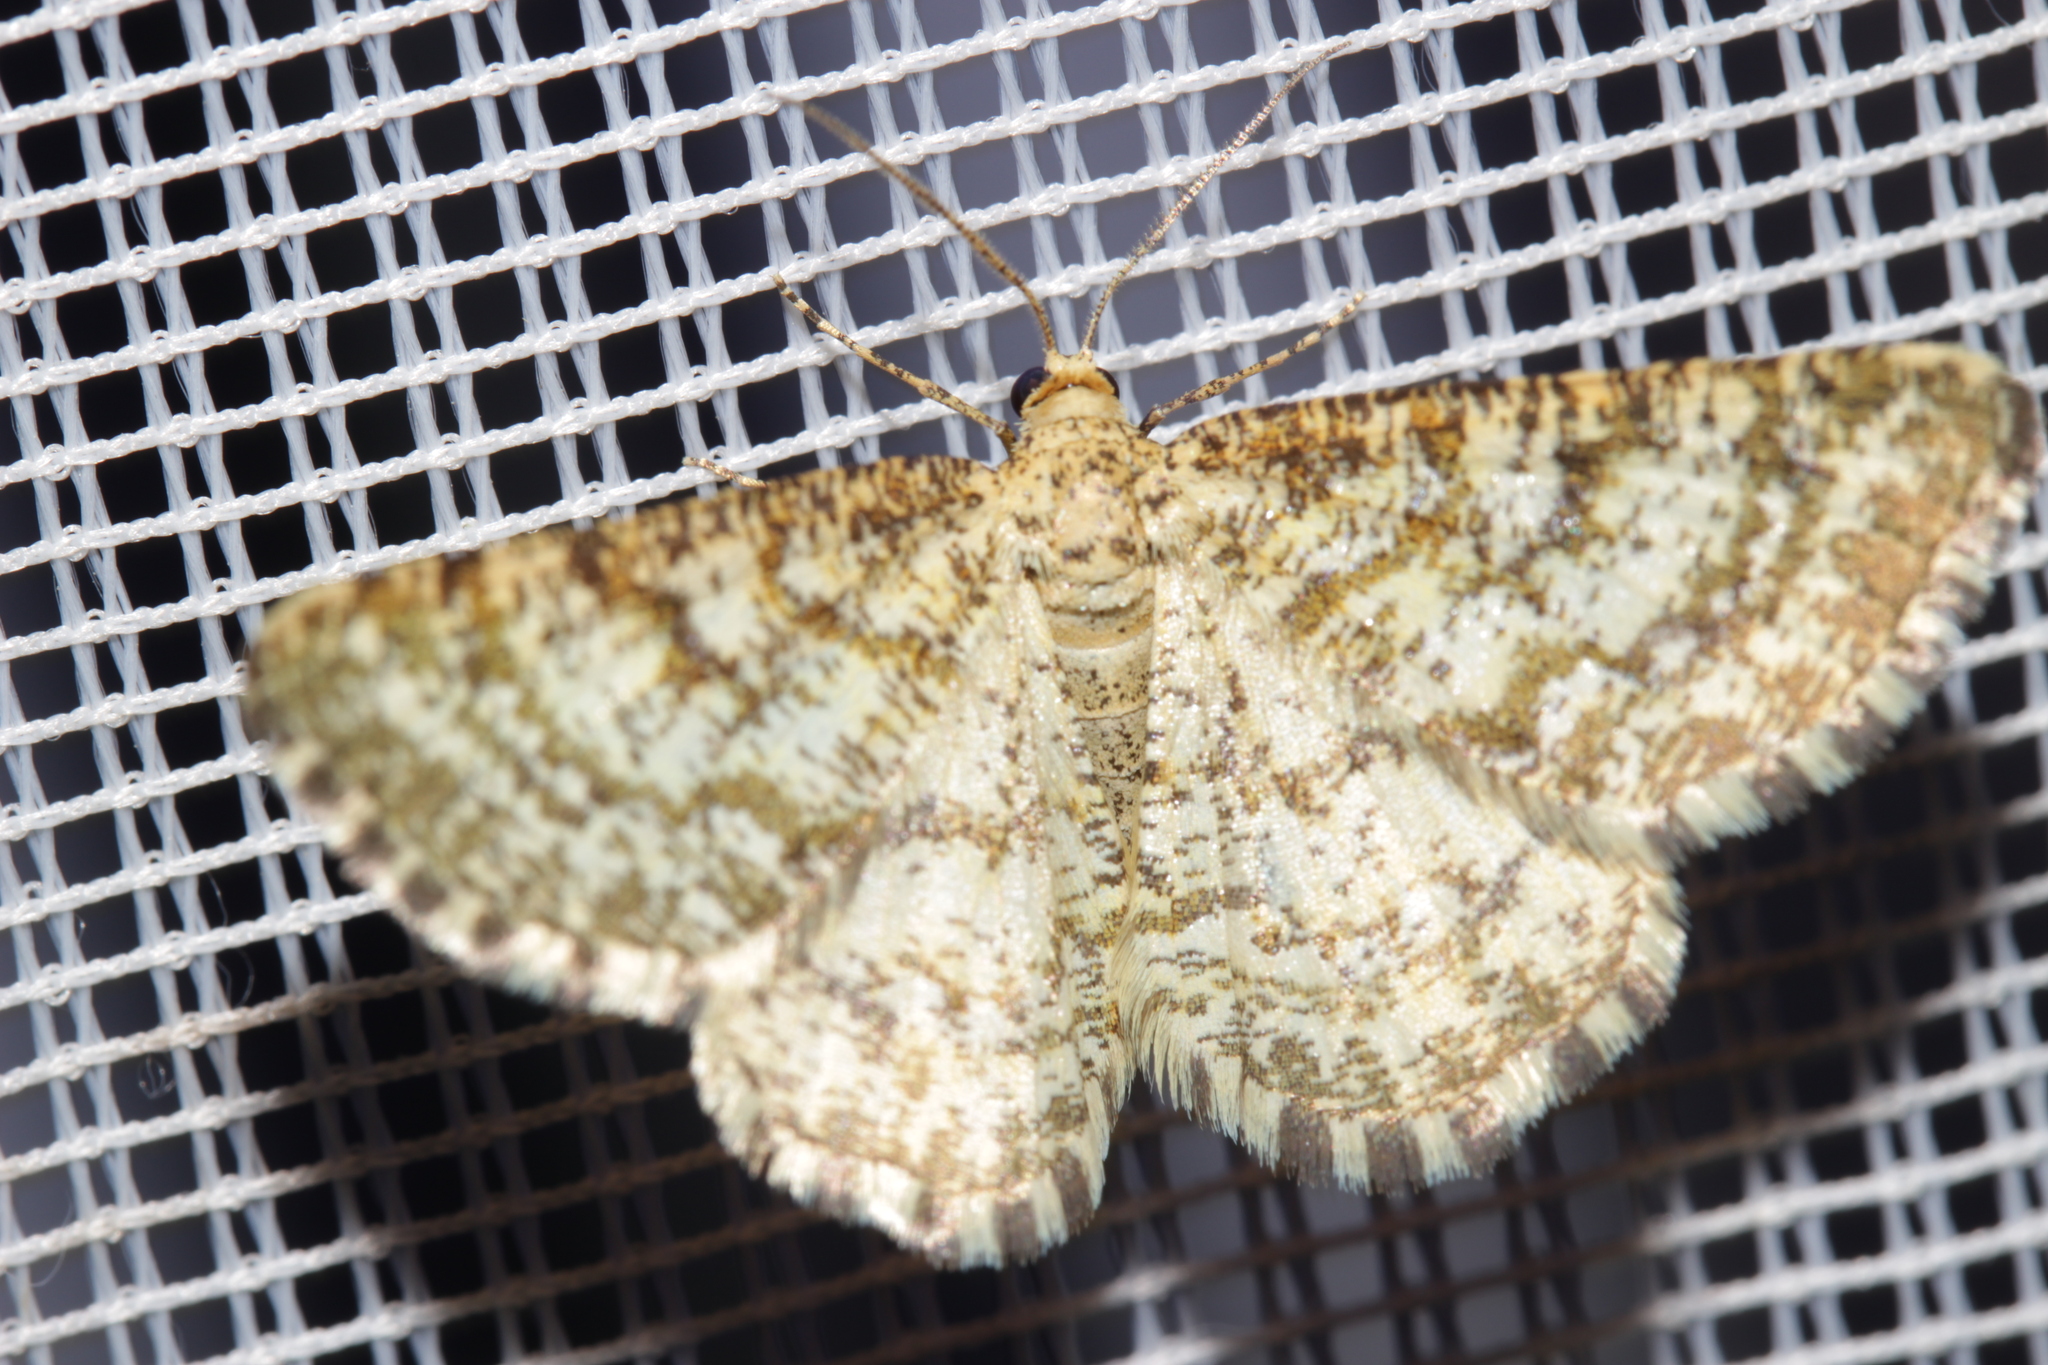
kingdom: Animalia
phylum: Arthropoda
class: Insecta
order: Lepidoptera
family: Geometridae
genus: Heliomata
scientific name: Heliomata glarearia
